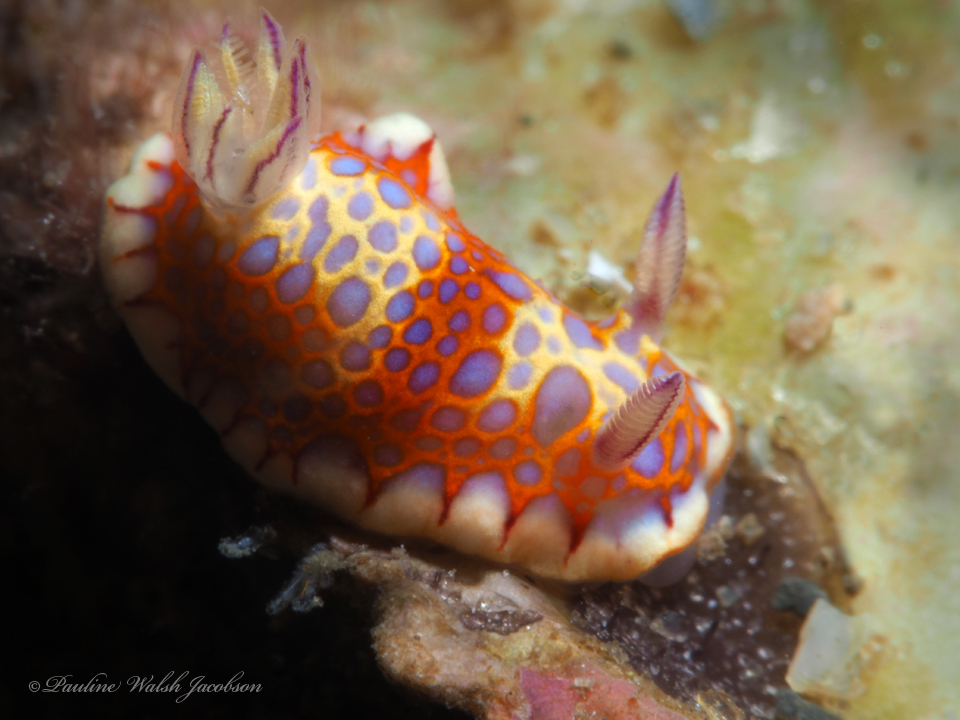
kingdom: Animalia
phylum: Mollusca
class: Gastropoda
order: Nudibranchia
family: Chromodorididae
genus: Felimida
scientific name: Felimida binza
